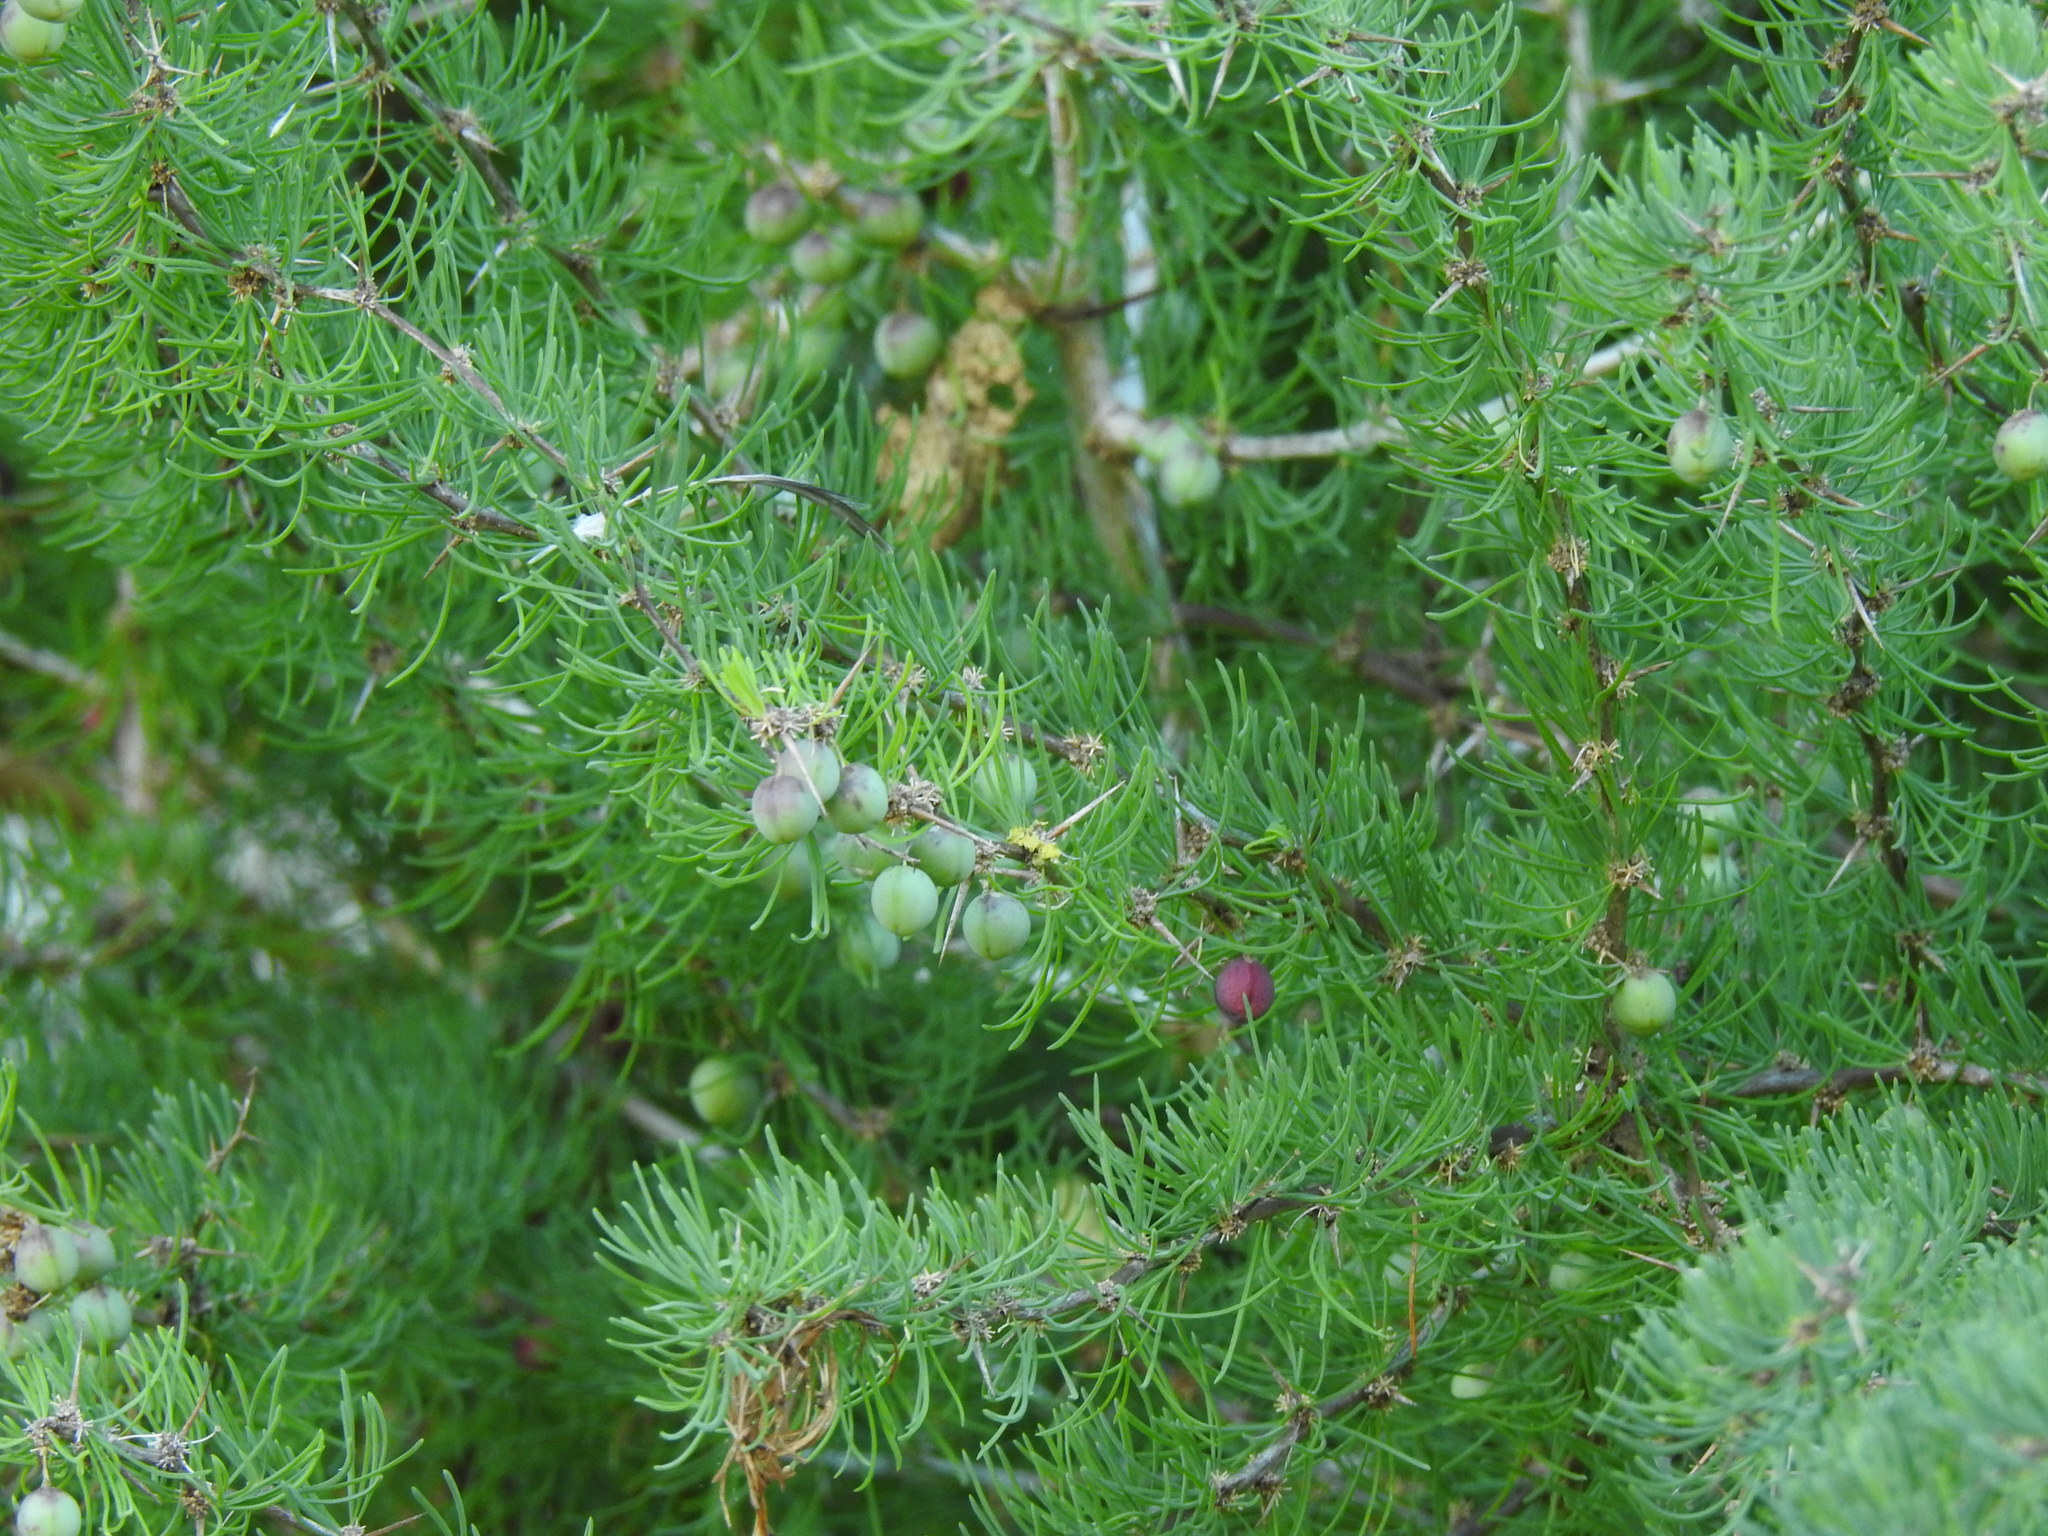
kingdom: Plantae
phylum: Tracheophyta
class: Liliopsida
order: Asparagales
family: Asparagaceae
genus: Asparagus
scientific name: Asparagus albus
